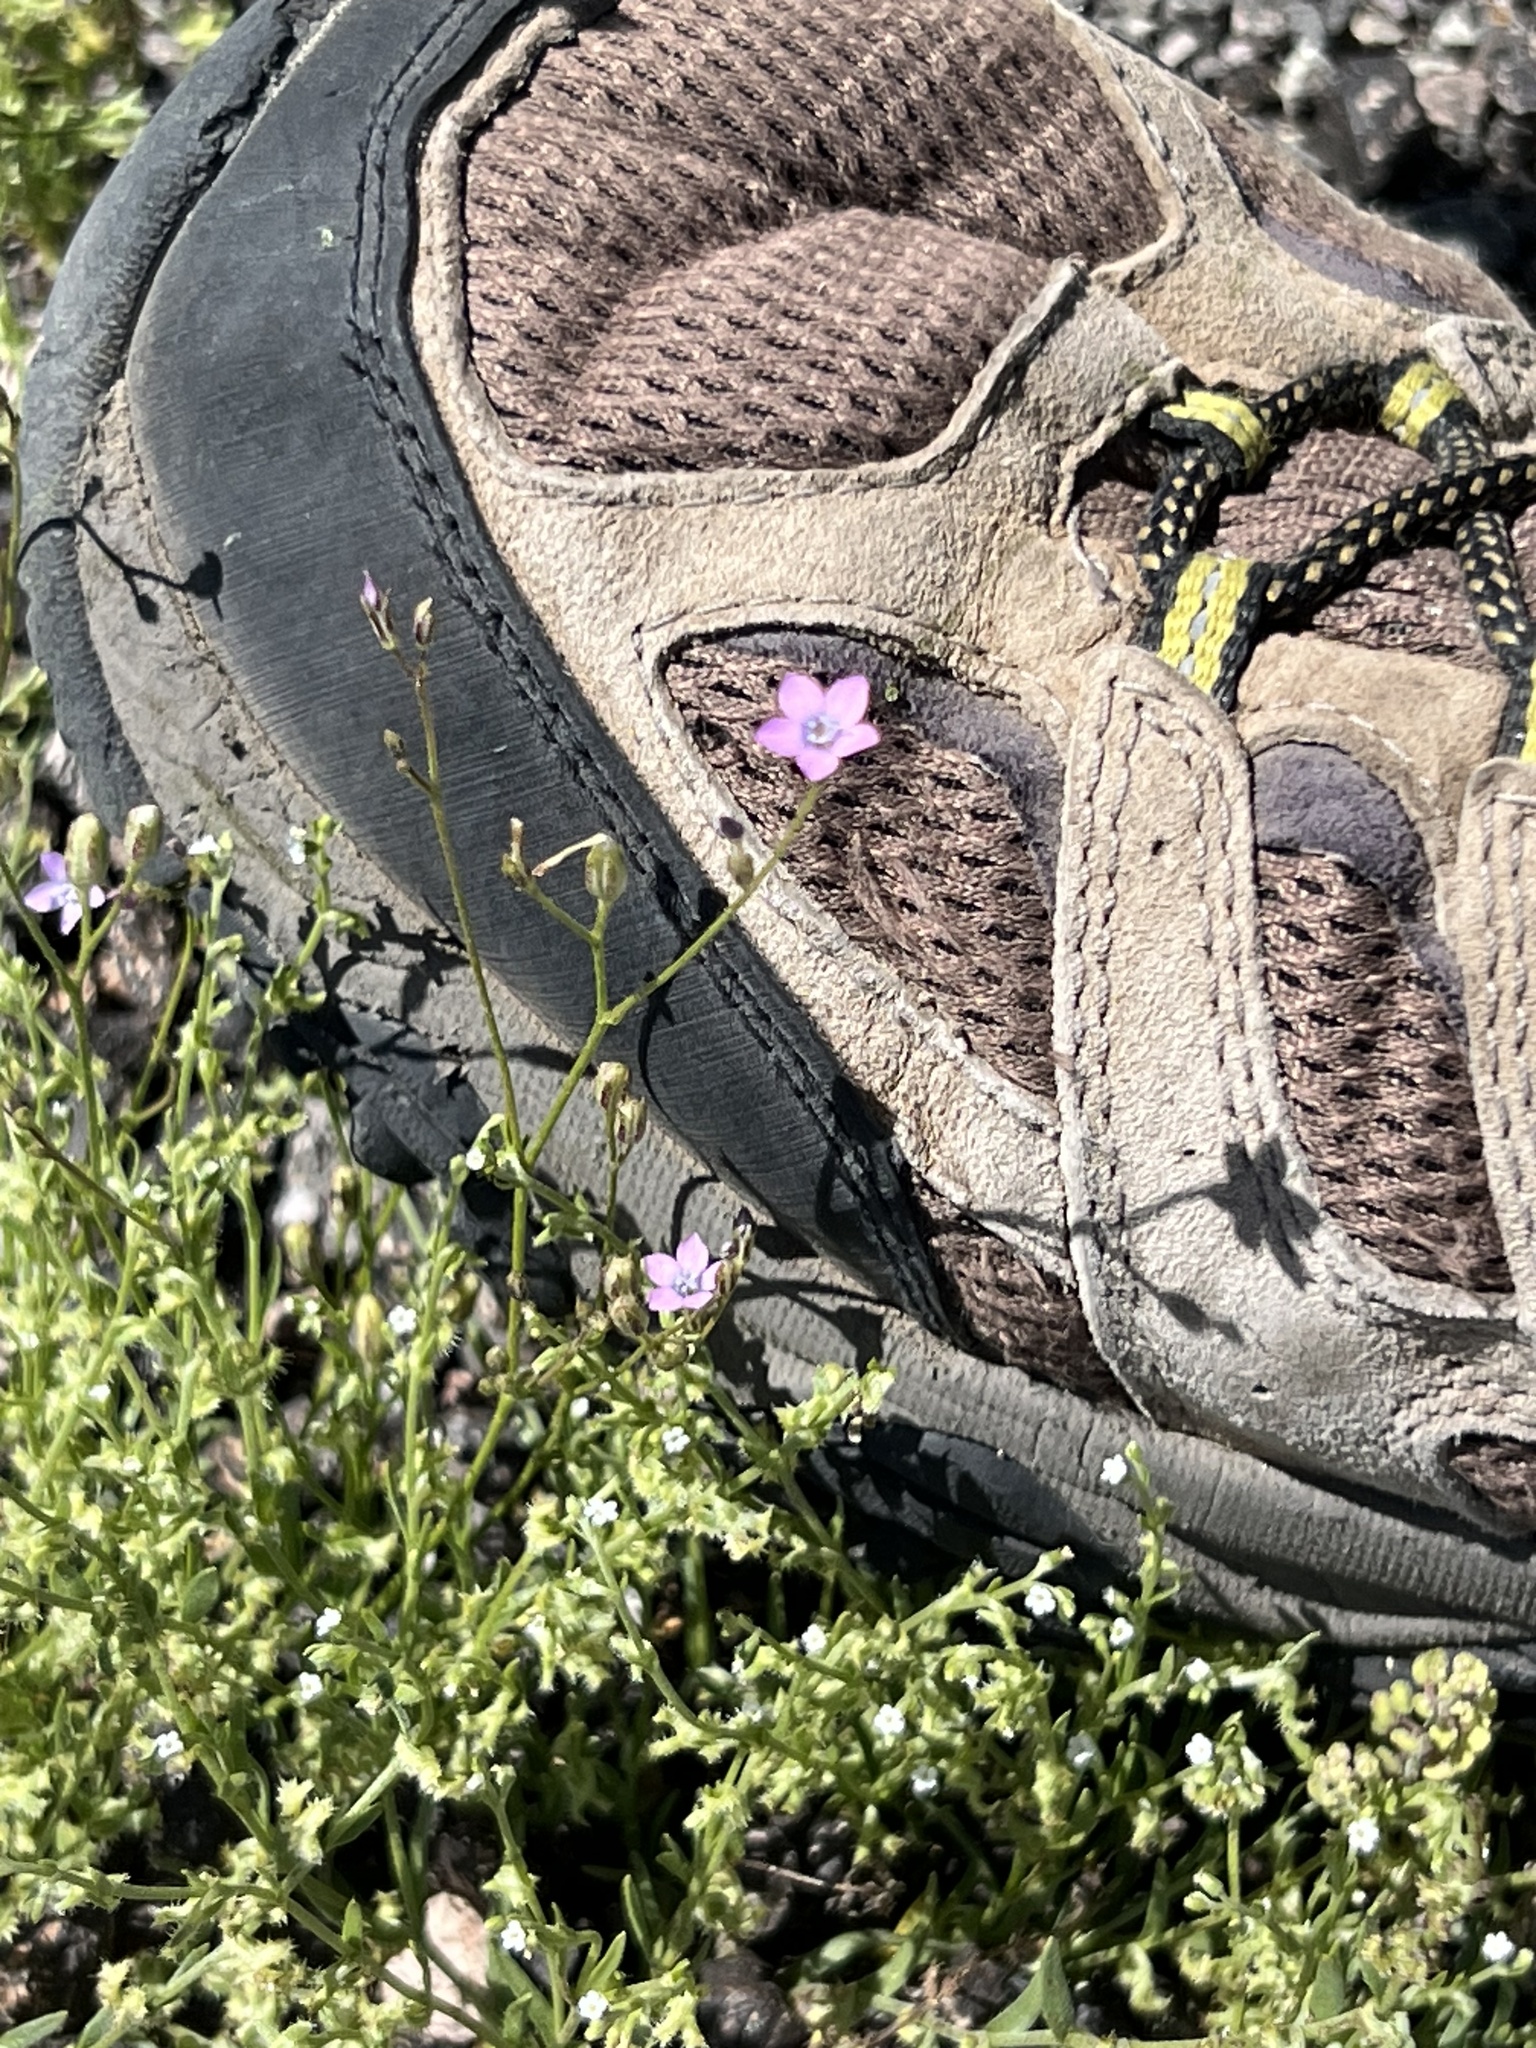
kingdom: Plantae
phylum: Tracheophyta
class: Magnoliopsida
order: Ericales
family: Polemoniaceae
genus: Gilia
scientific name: Gilia flavocincta
